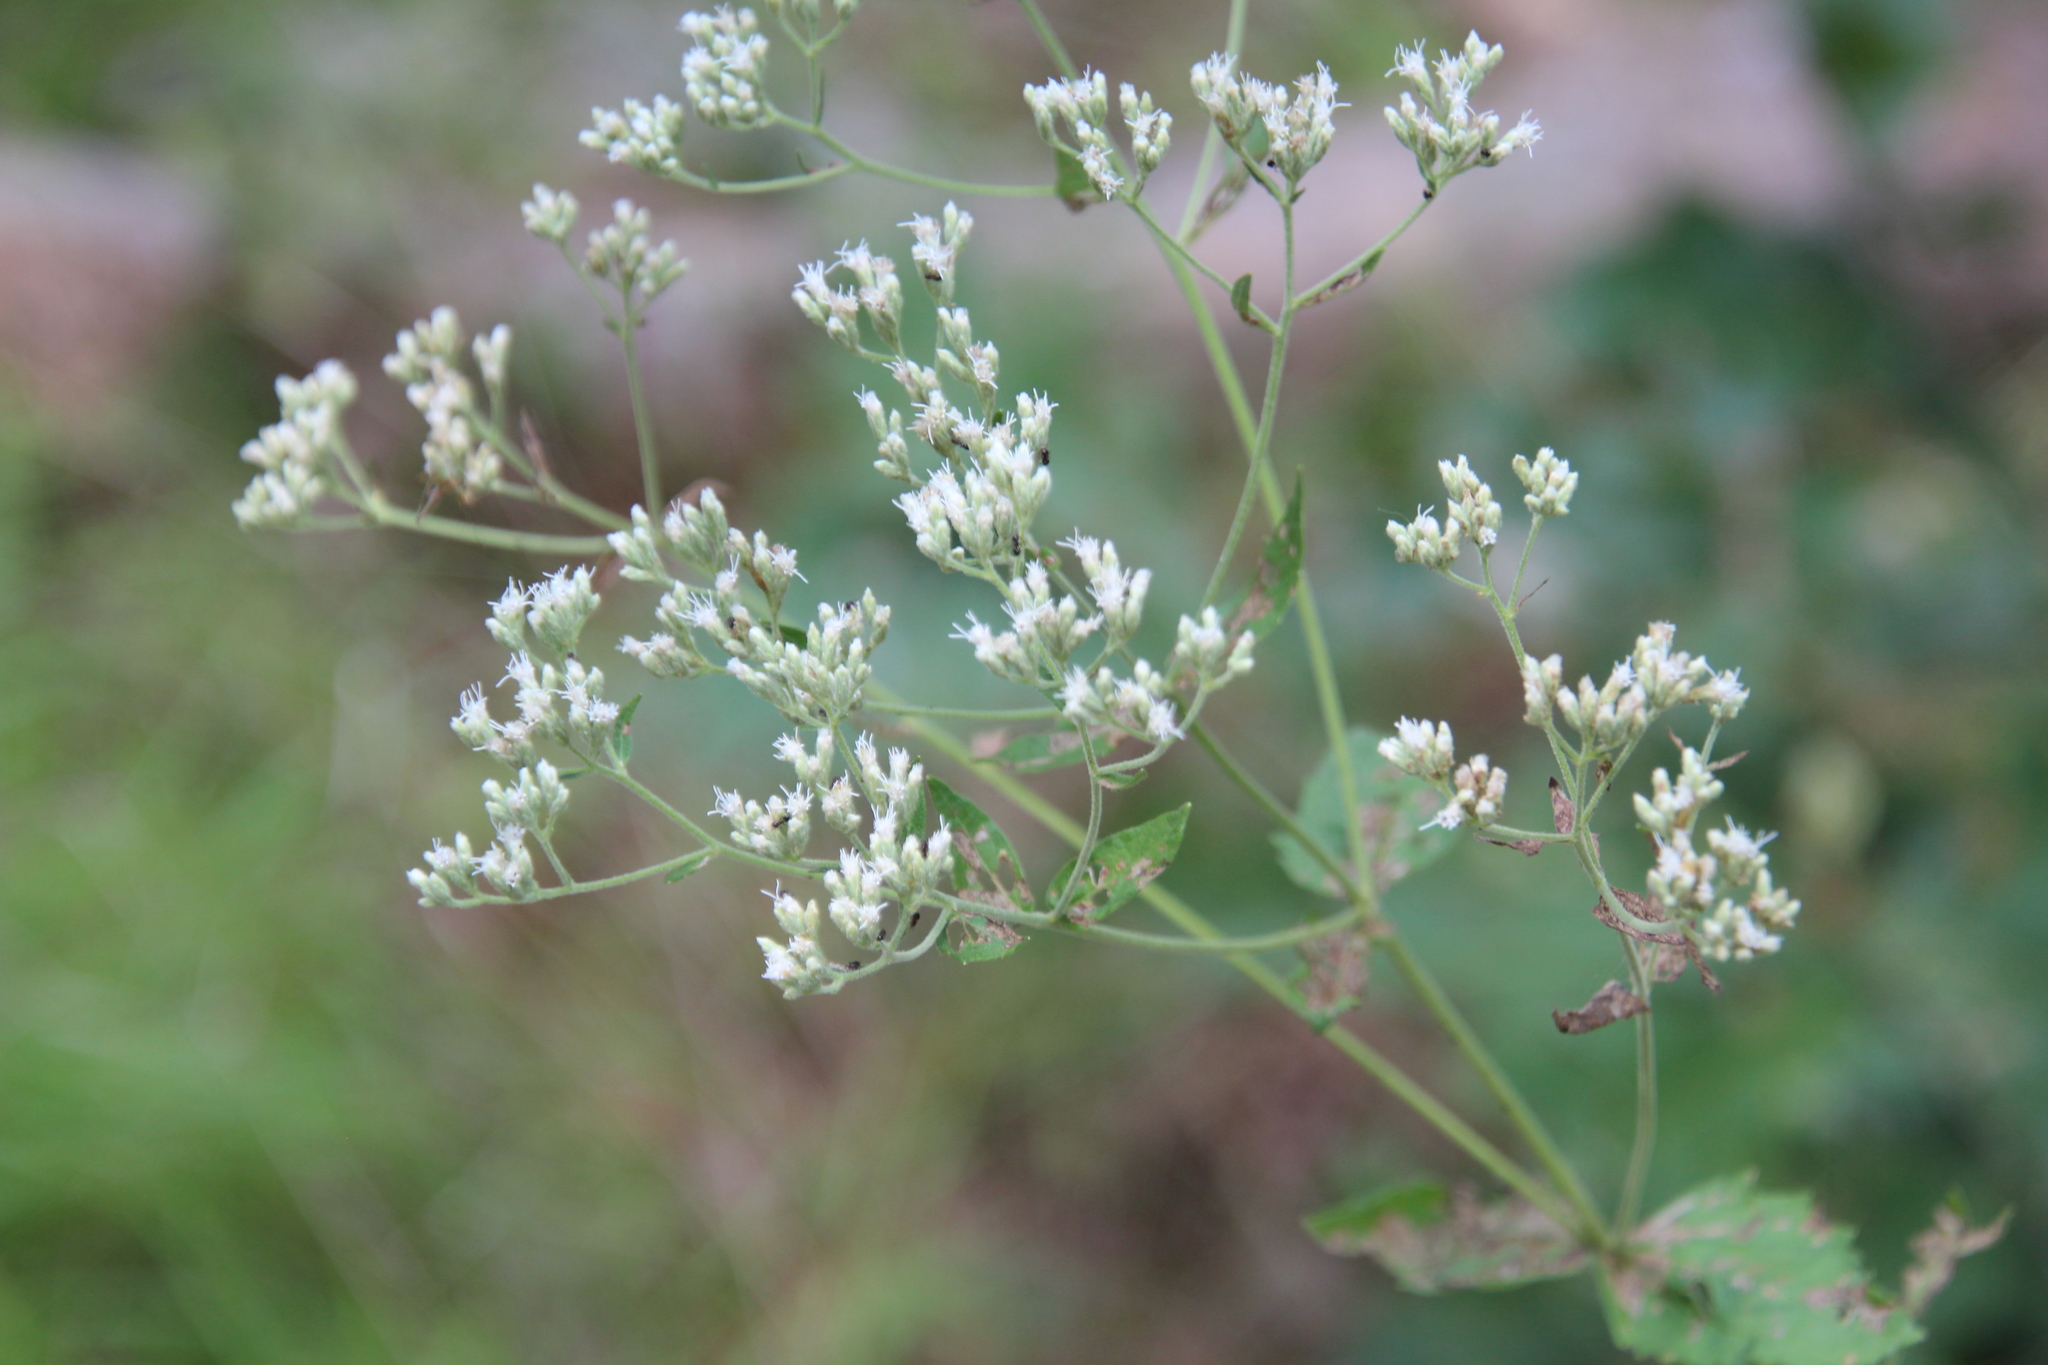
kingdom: Plantae
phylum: Tracheophyta
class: Magnoliopsida
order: Asterales
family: Asteraceae
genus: Eupatorium
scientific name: Eupatorium rotundifolium
